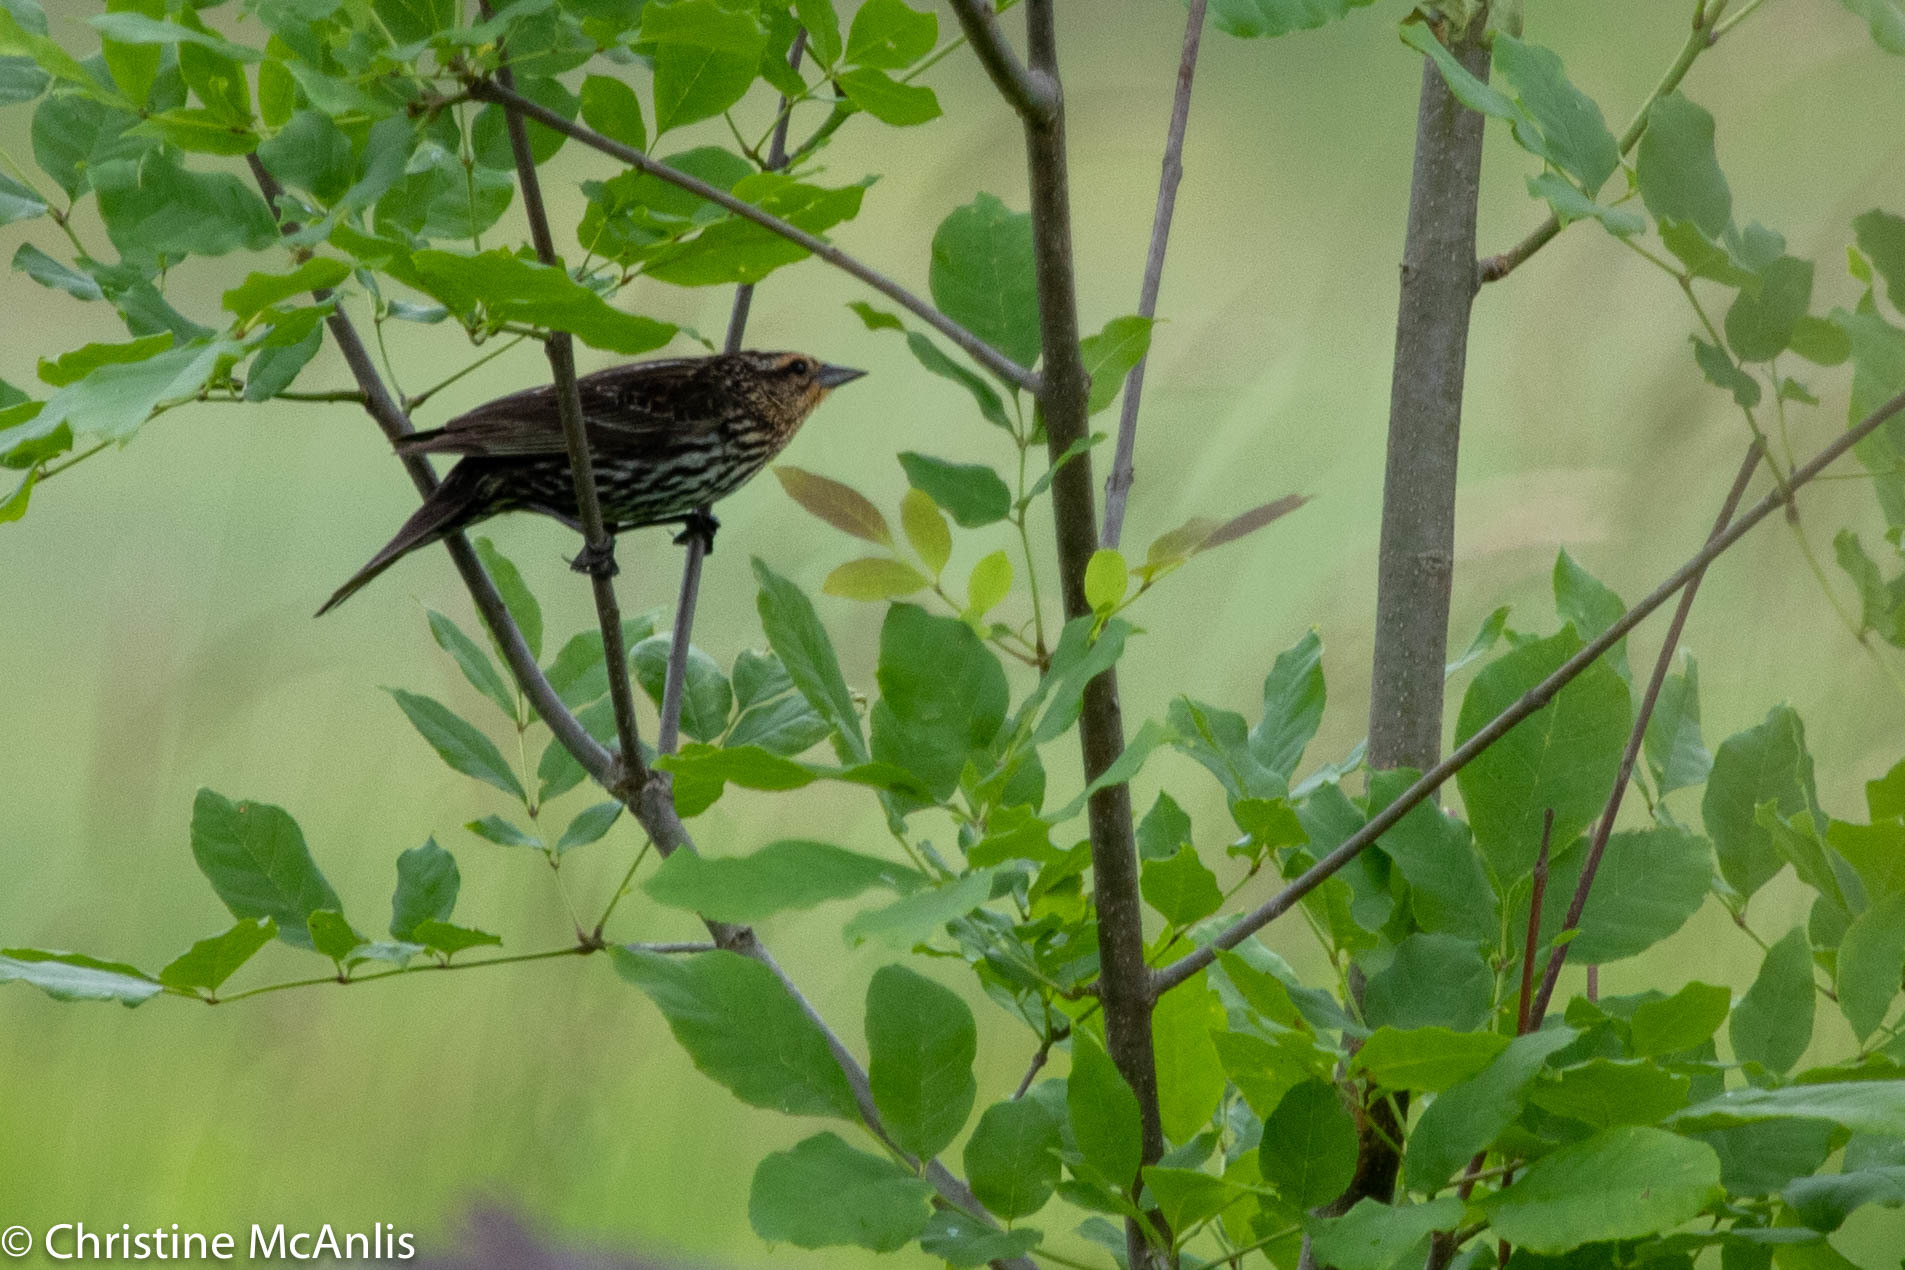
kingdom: Animalia
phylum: Chordata
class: Aves
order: Passeriformes
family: Icteridae
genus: Agelaius
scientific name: Agelaius phoeniceus
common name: Red-winged blackbird
